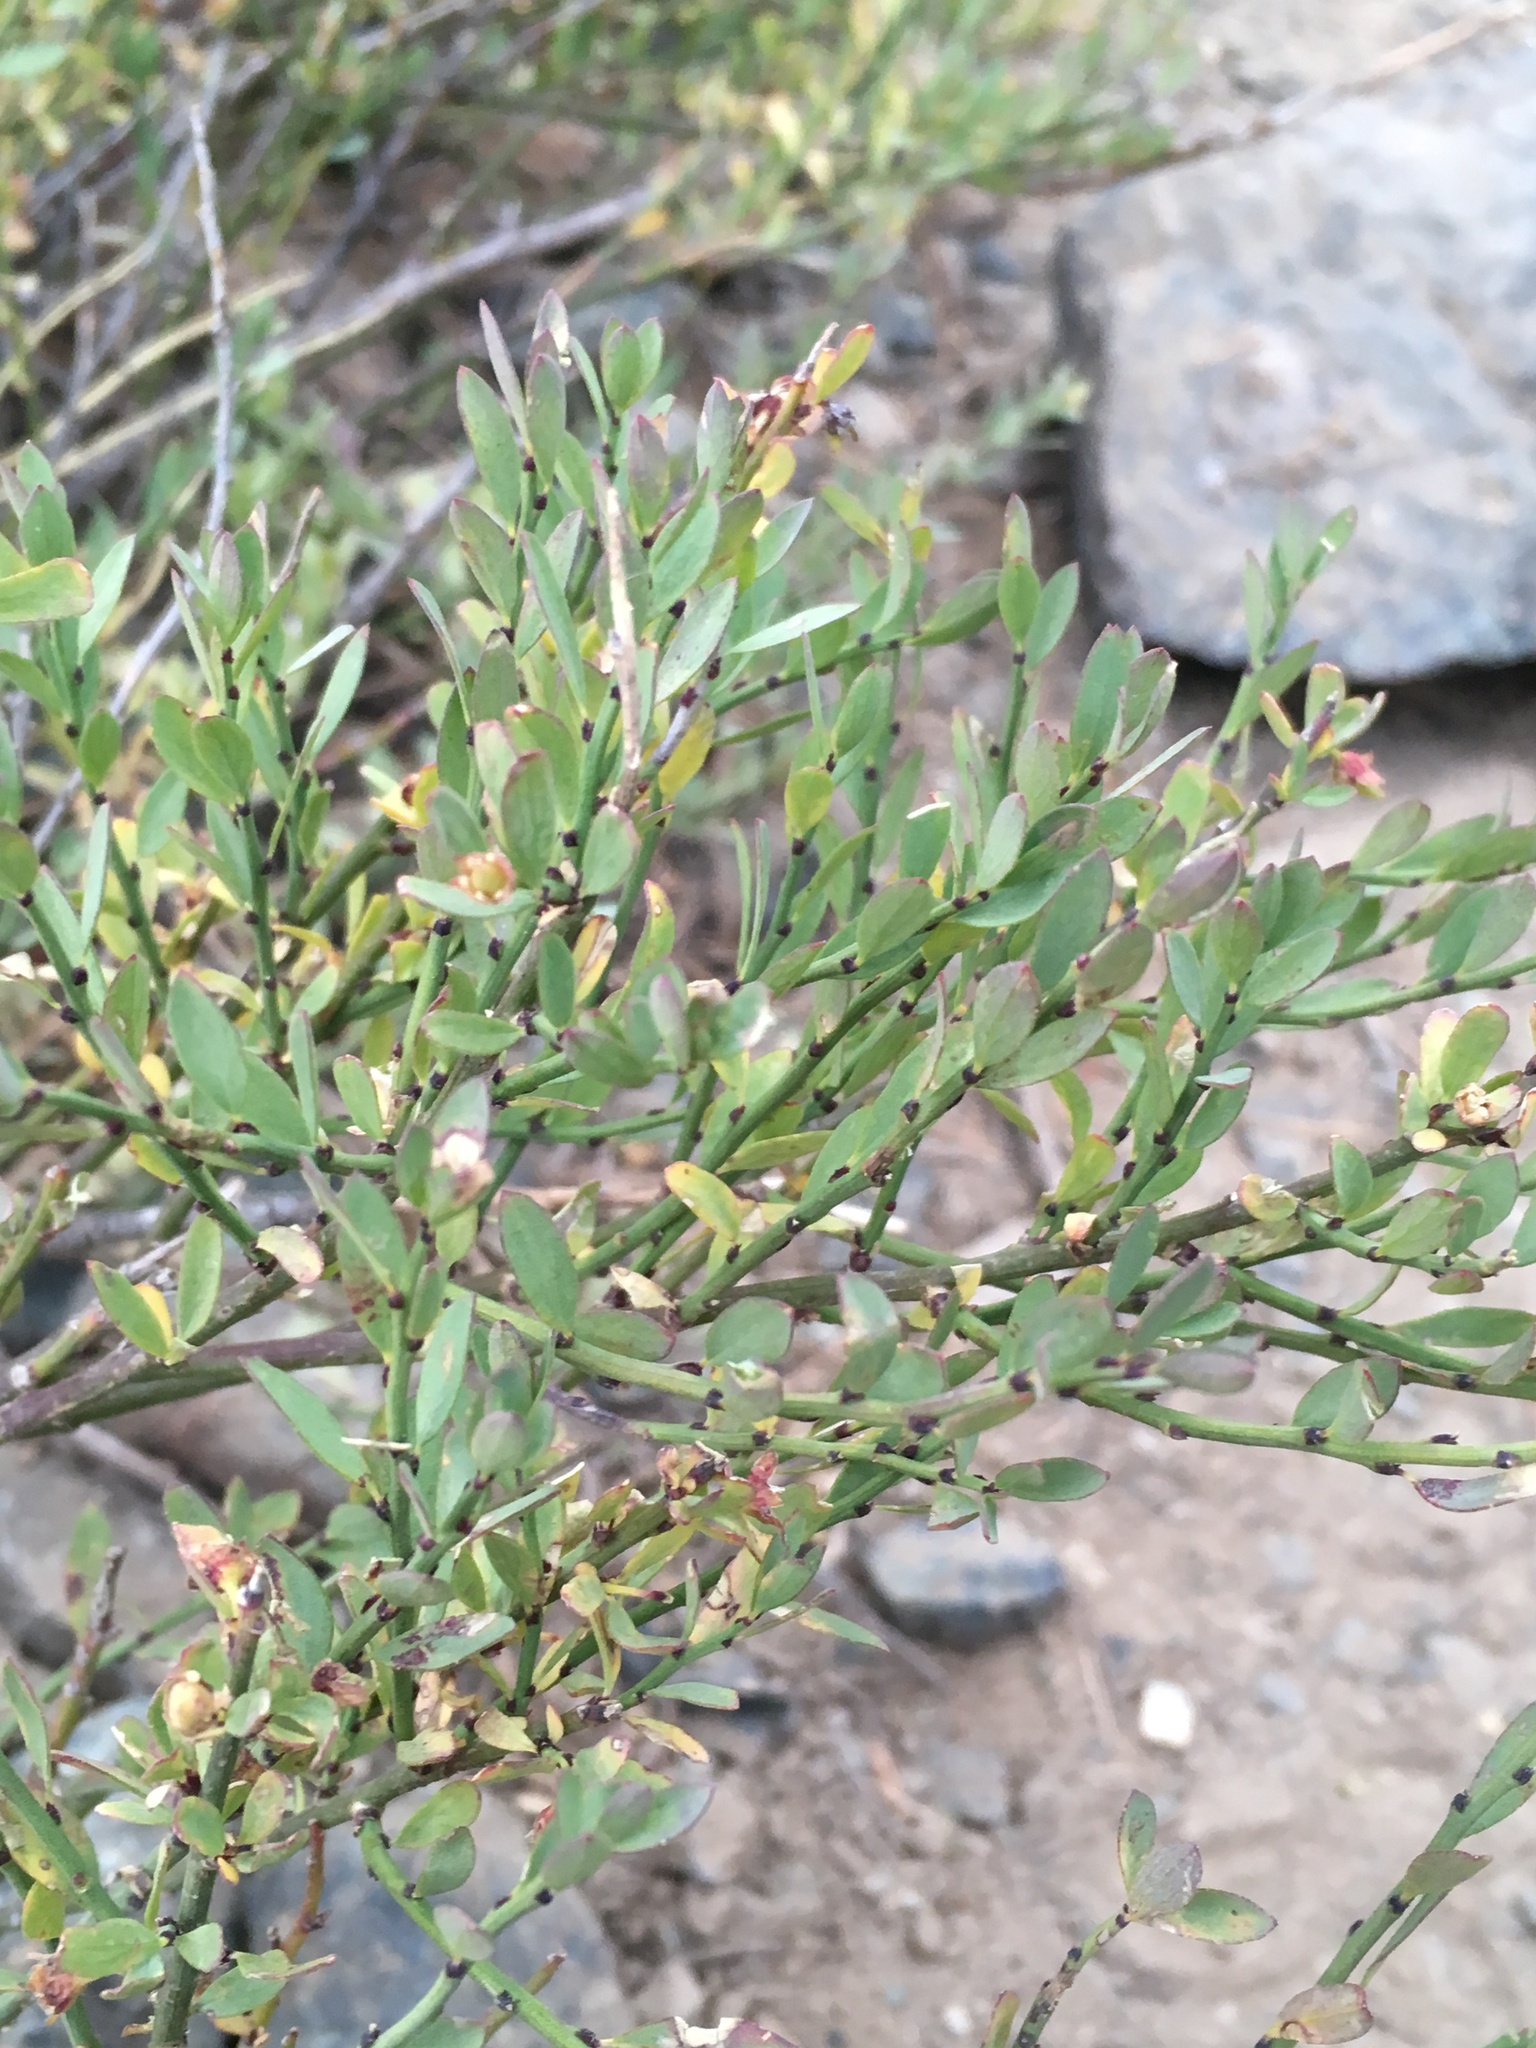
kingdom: Plantae
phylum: Tracheophyta
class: Magnoliopsida
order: Crossosomatales
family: Crossosomataceae
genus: Glossopetalon
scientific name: Glossopetalon spinescens
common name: Spring greasebush
